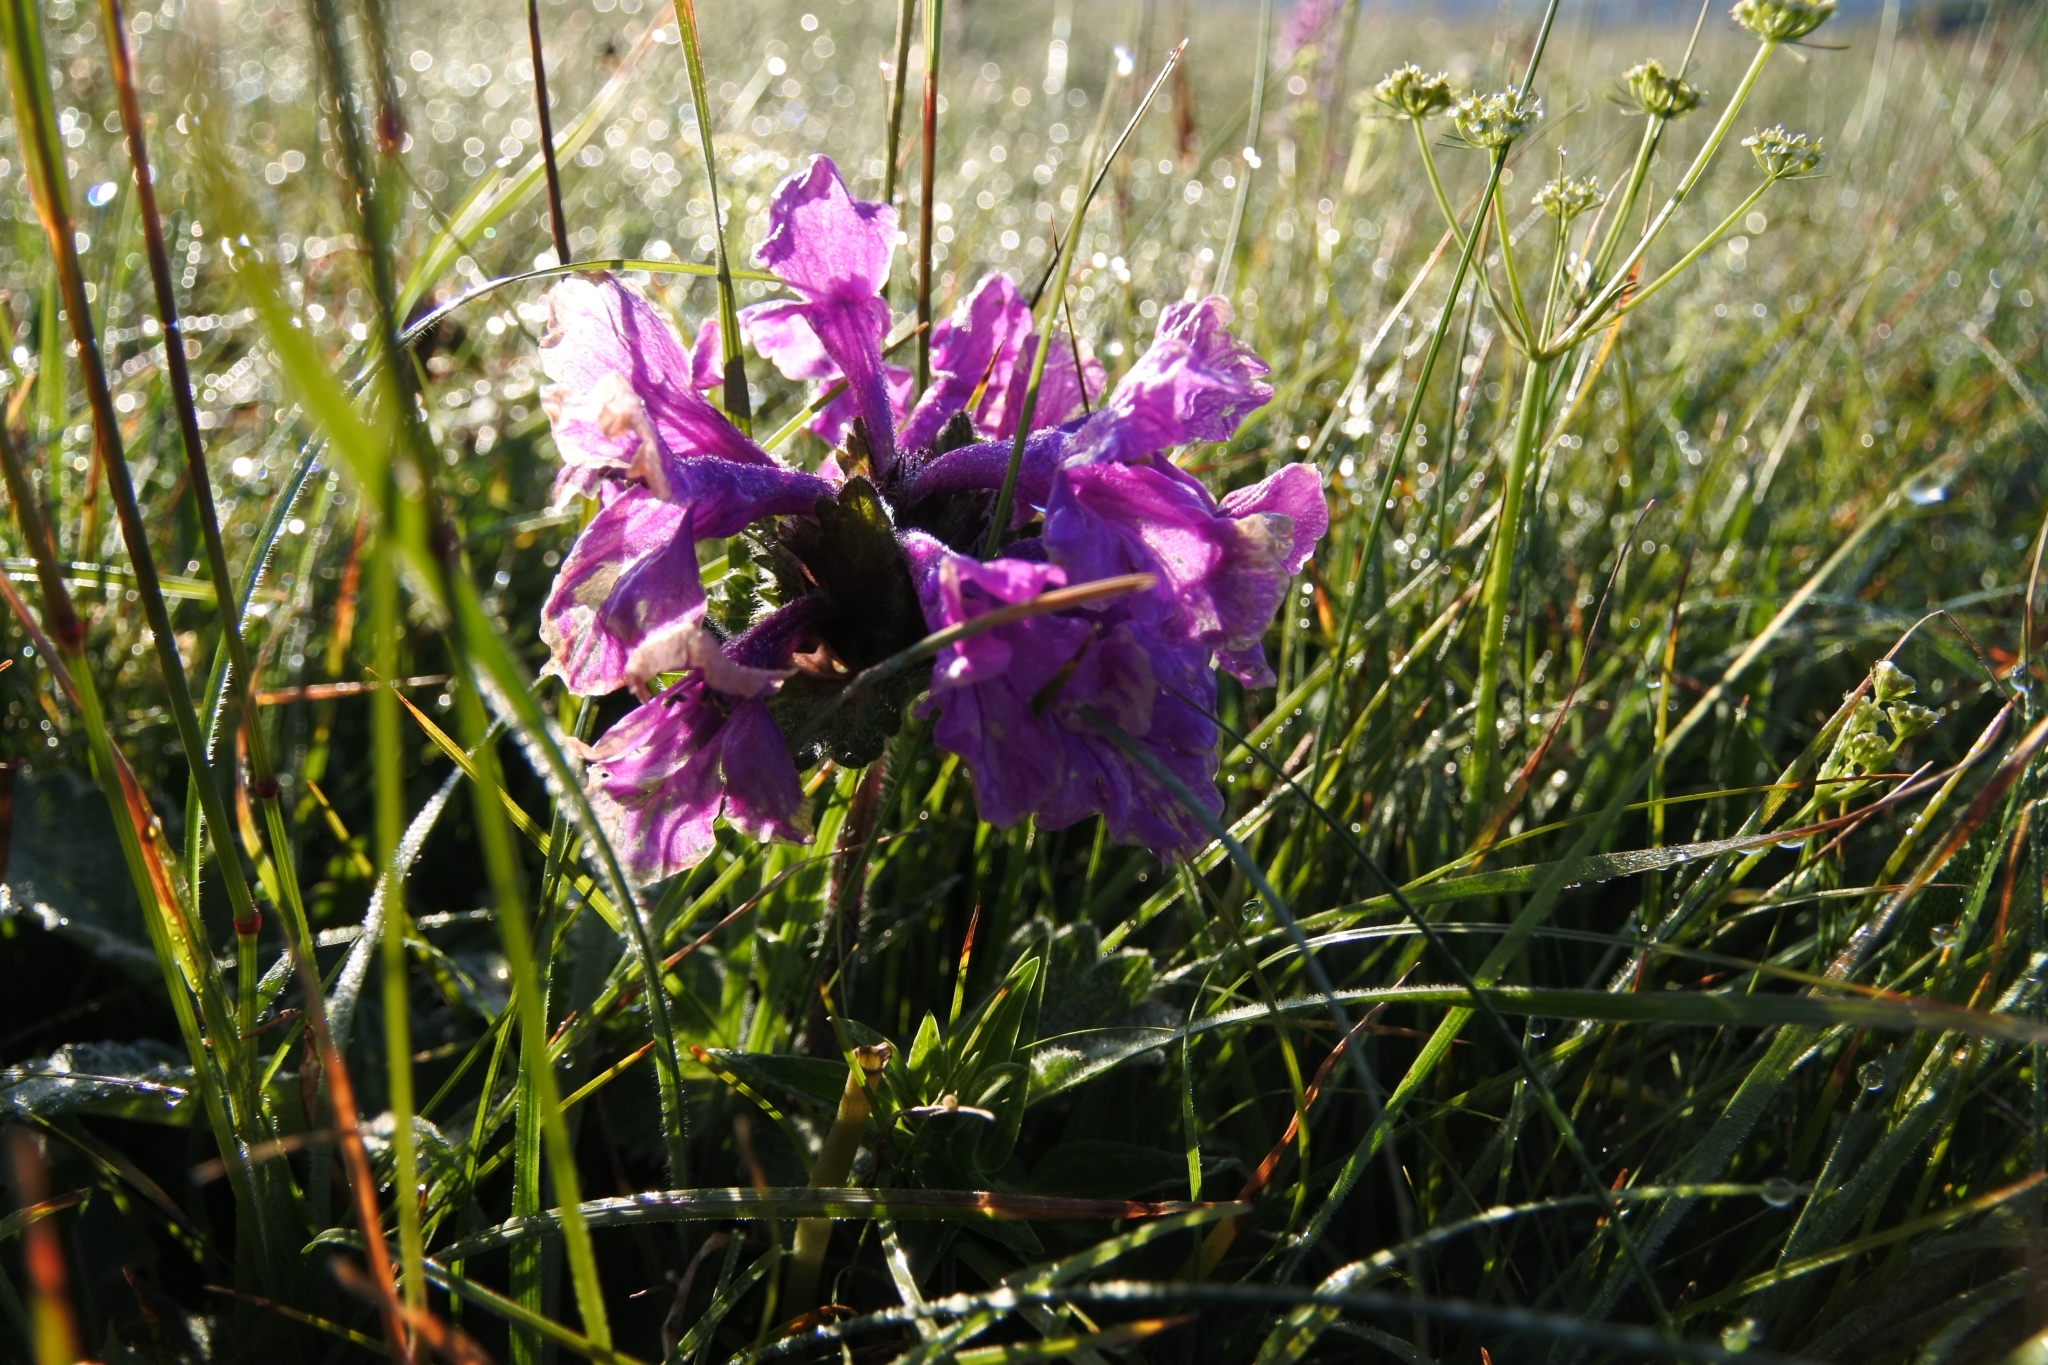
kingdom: Plantae
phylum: Tracheophyta
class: Magnoliopsida
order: Lamiales
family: Lamiaceae
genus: Betonica
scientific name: Betonica macrantha
